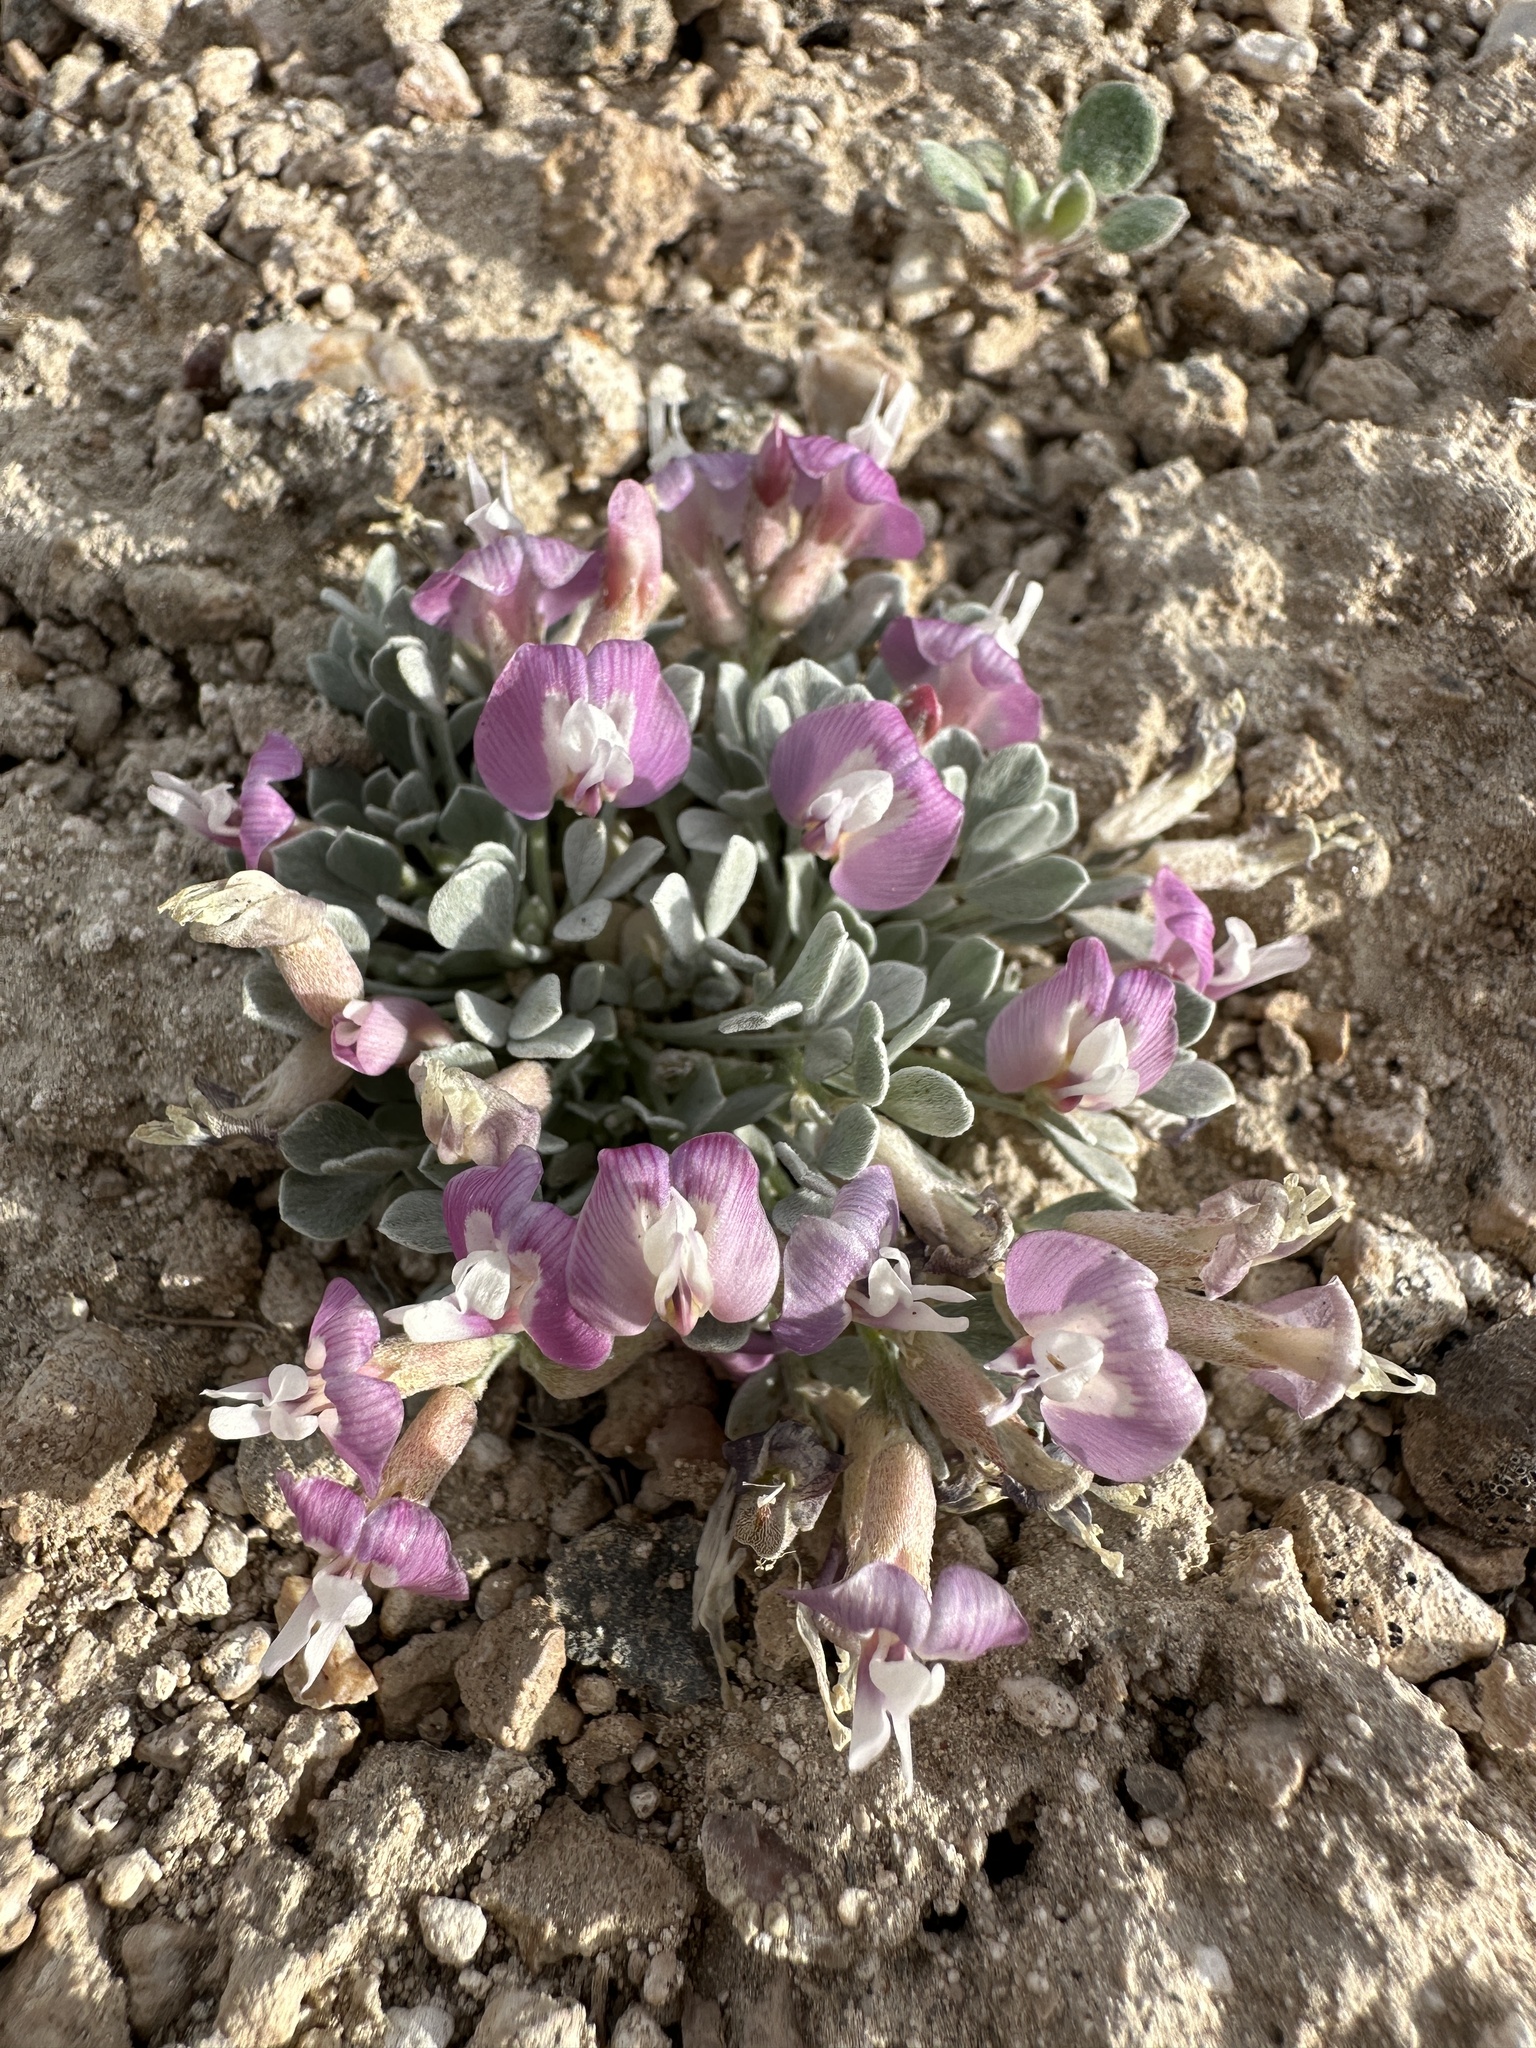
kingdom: Plantae
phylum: Tracheophyta
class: Magnoliopsida
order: Fabales
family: Fabaceae
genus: Astragalus
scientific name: Astragalus calycosus
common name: King's milkvetch
